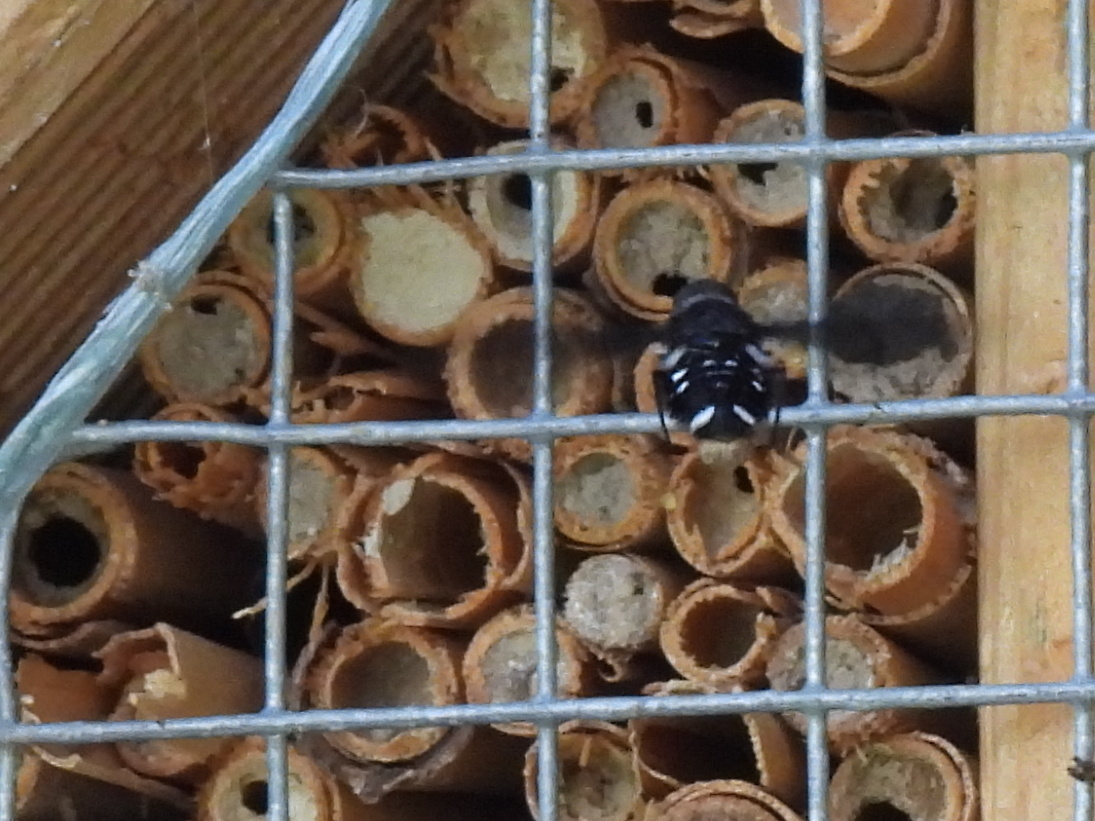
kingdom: Animalia
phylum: Arthropoda
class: Insecta
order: Diptera
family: Bombyliidae
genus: Anthrax
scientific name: Anthrax anthrax
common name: Anthracite bee-fly
